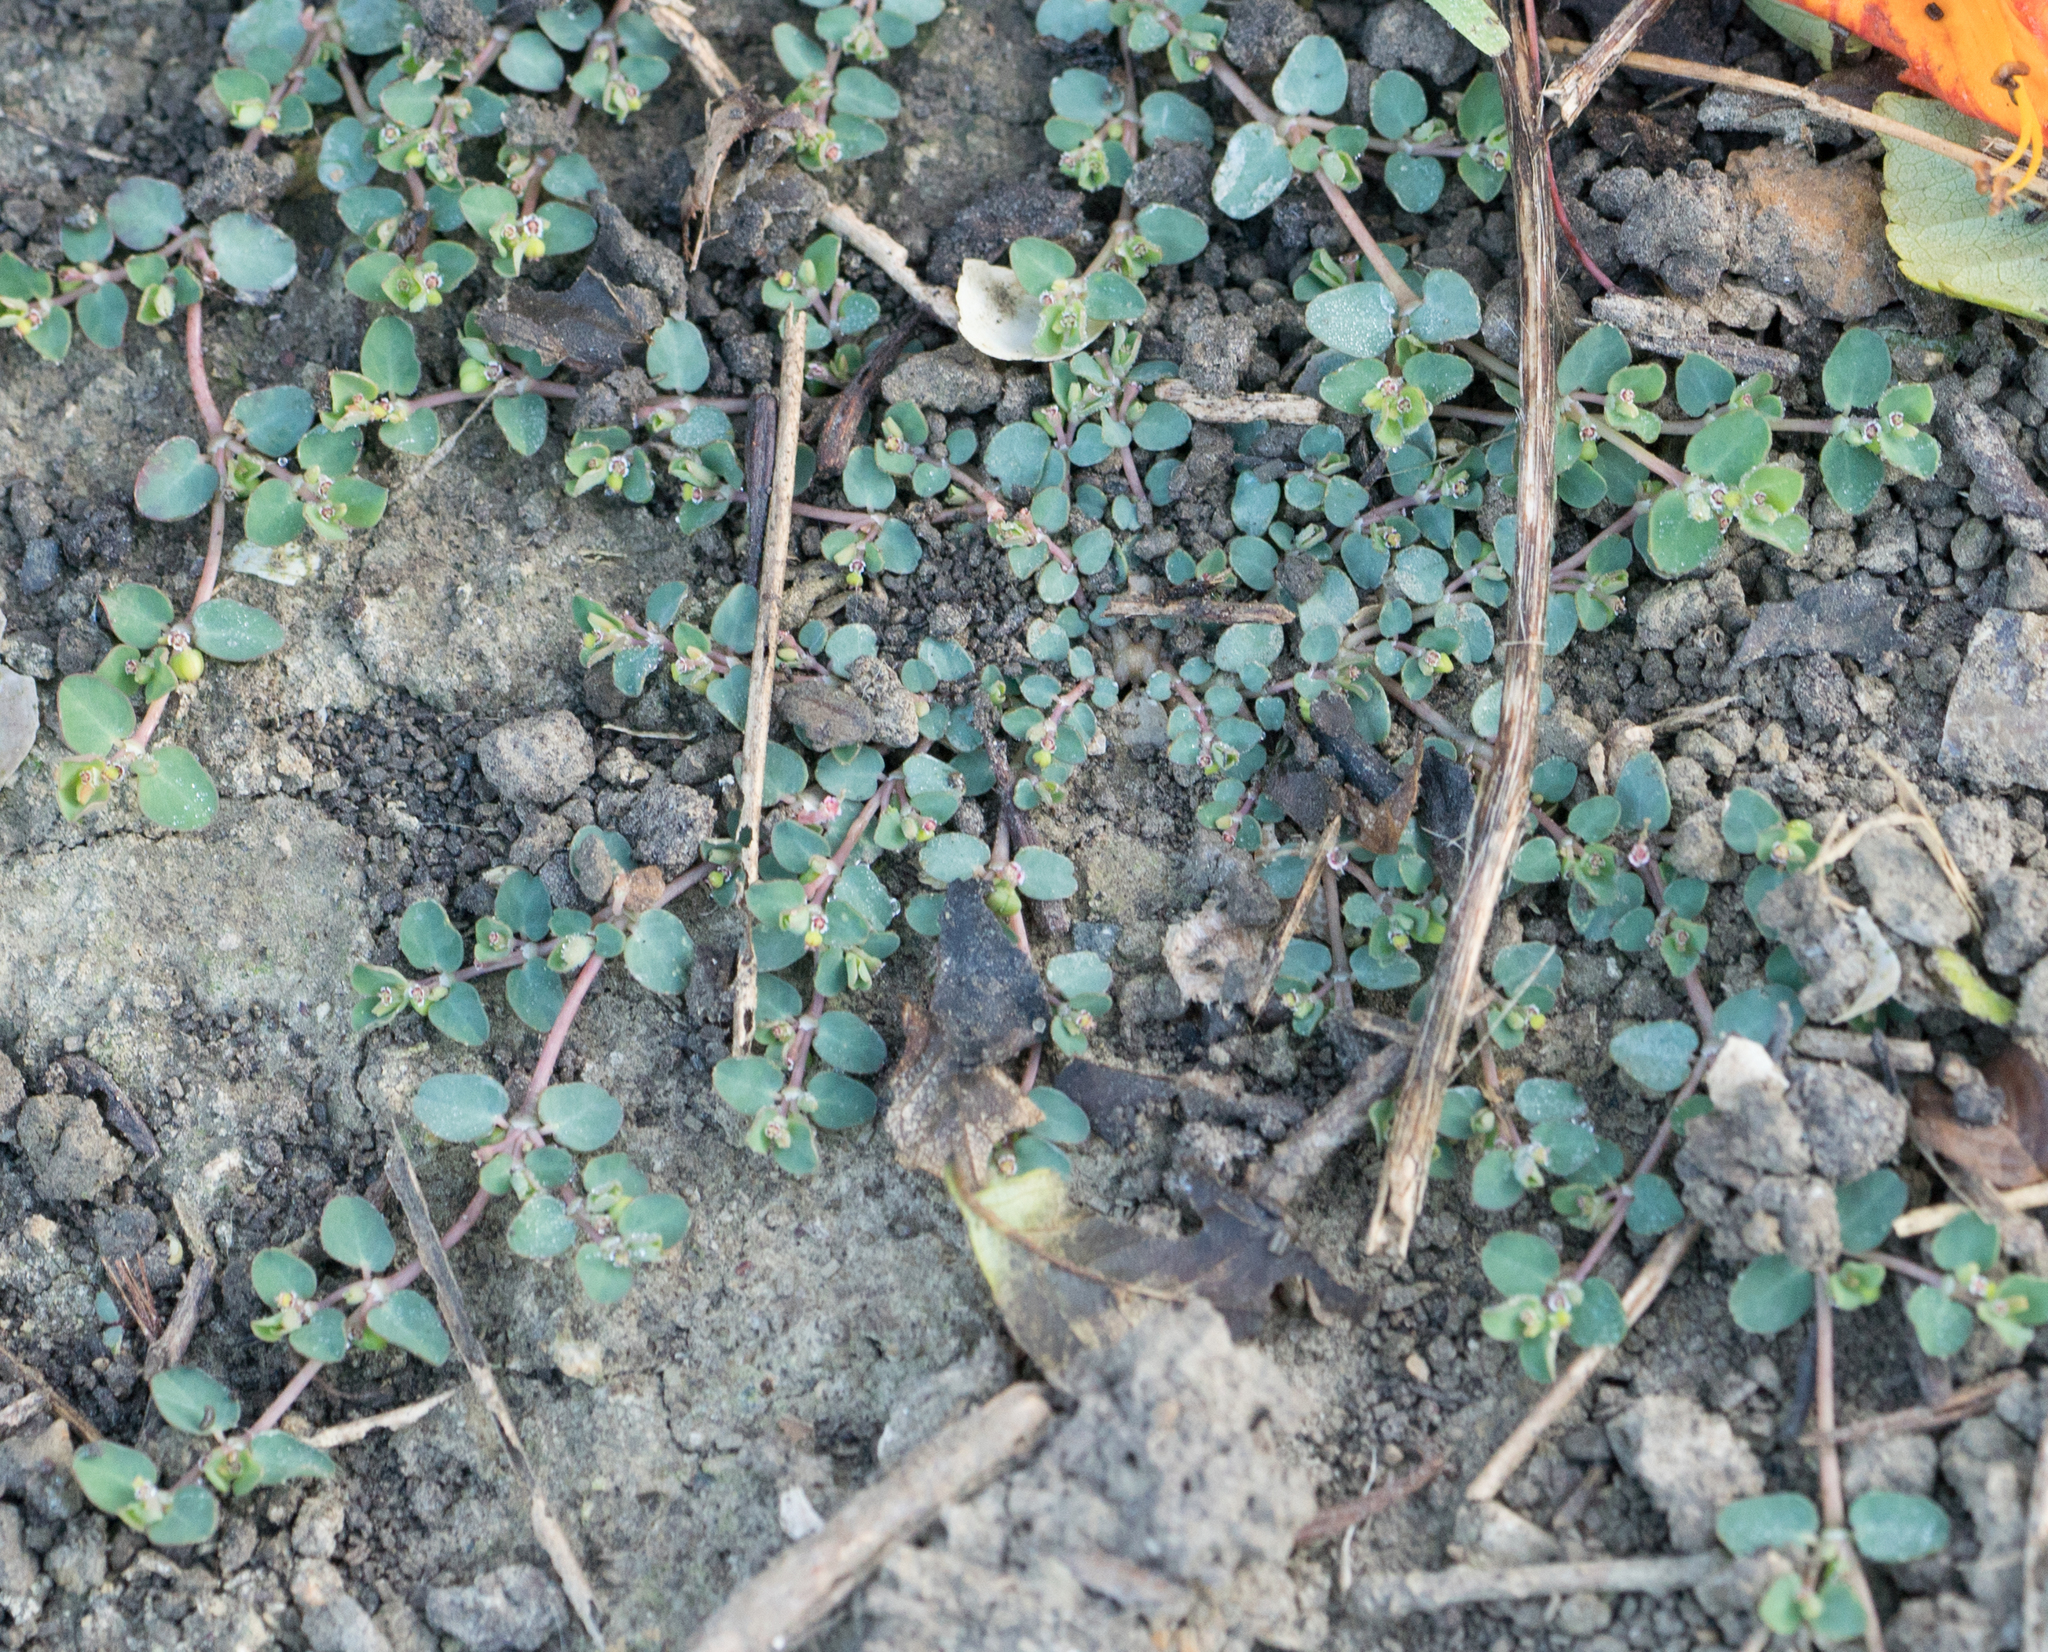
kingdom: Plantae
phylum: Tracheophyta
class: Magnoliopsida
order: Malpighiales
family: Euphorbiaceae
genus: Euphorbia
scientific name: Euphorbia serpens
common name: Matted sandmat
